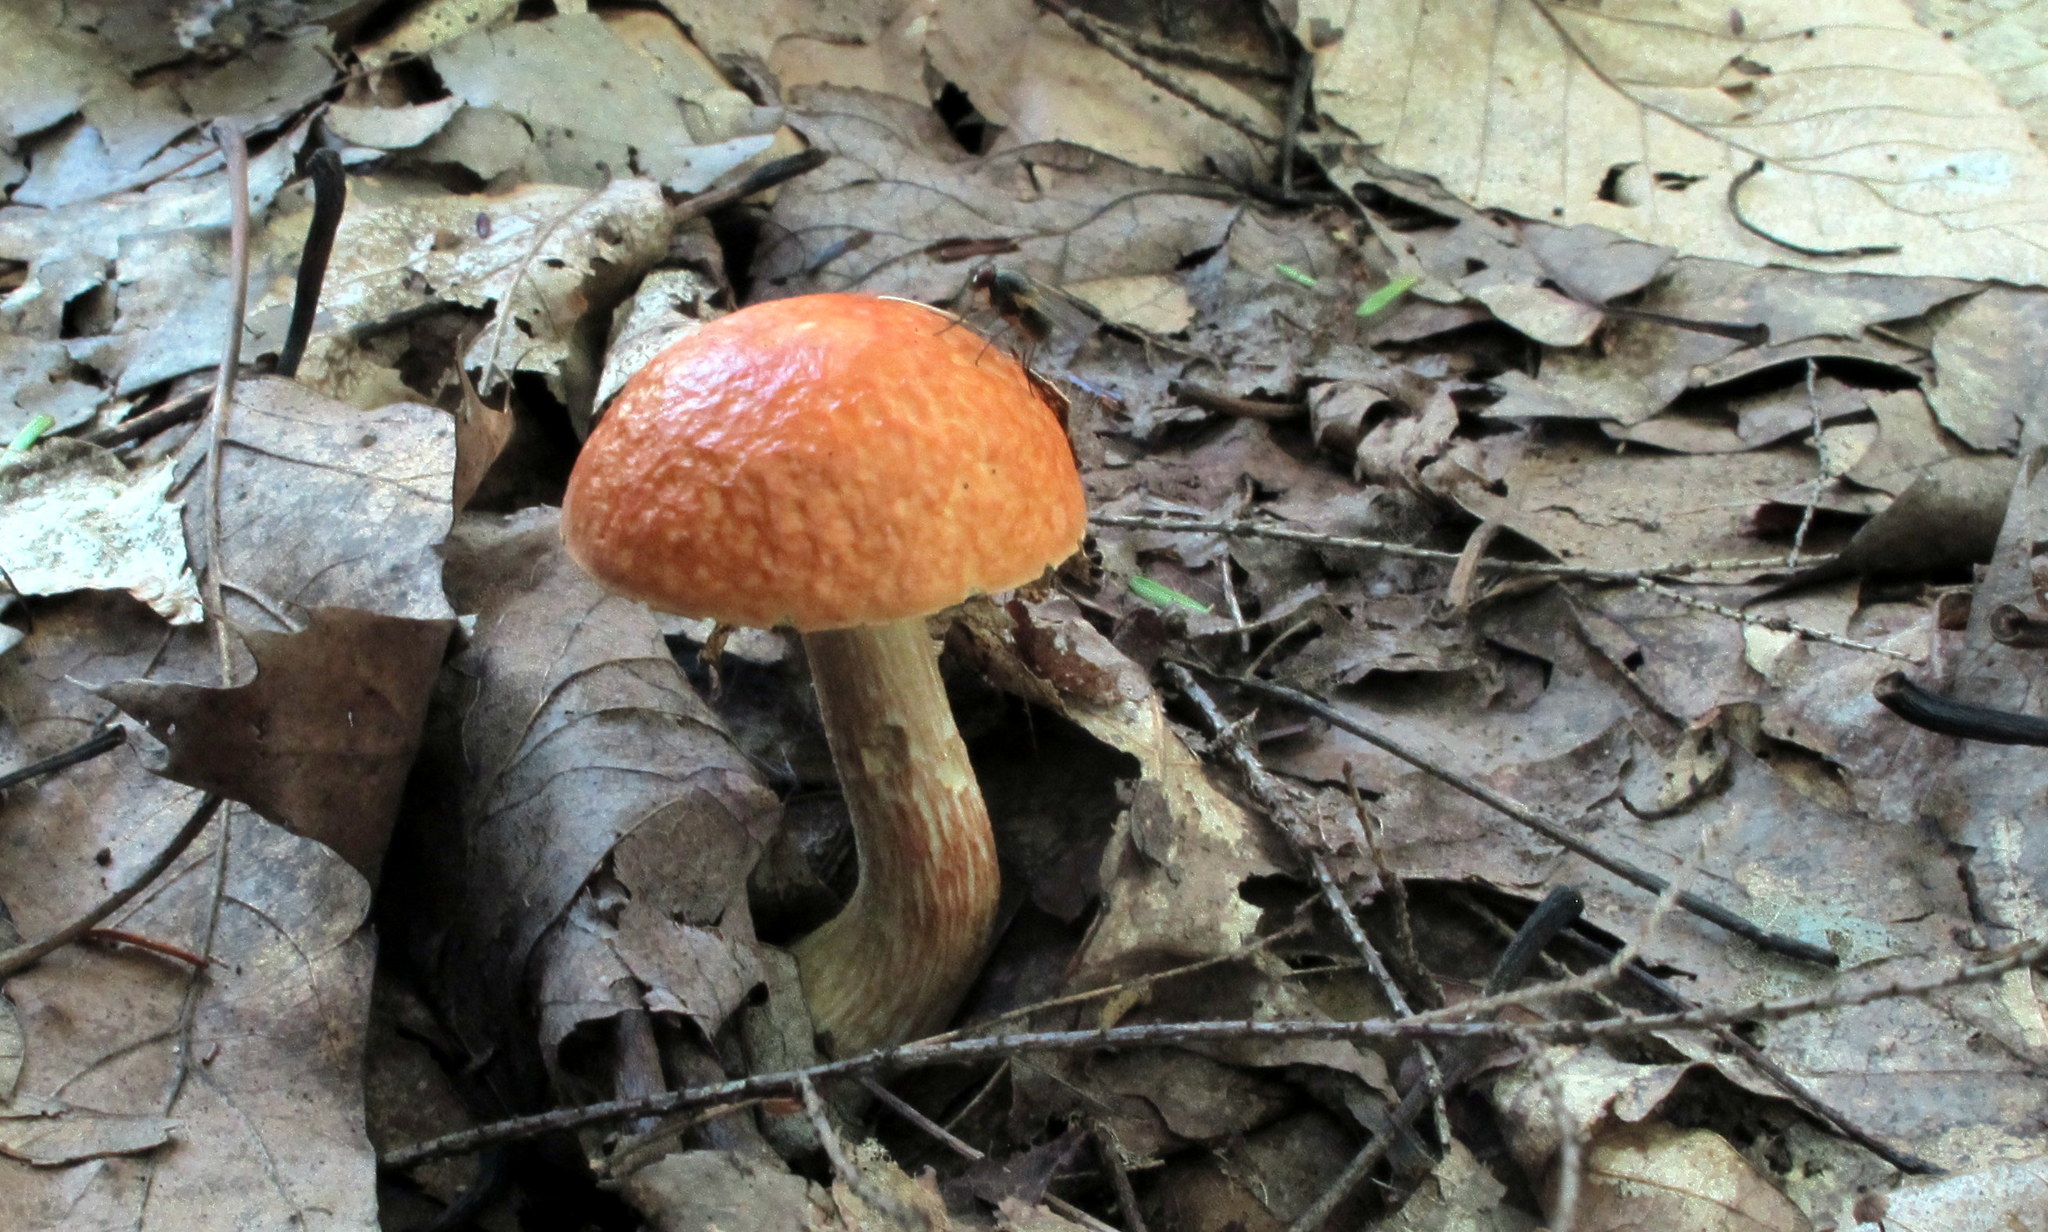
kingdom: Fungi
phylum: Basidiomycota
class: Agaricomycetes
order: Boletales
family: Boletaceae
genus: Leccinum
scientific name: Leccinum longicurvipes
